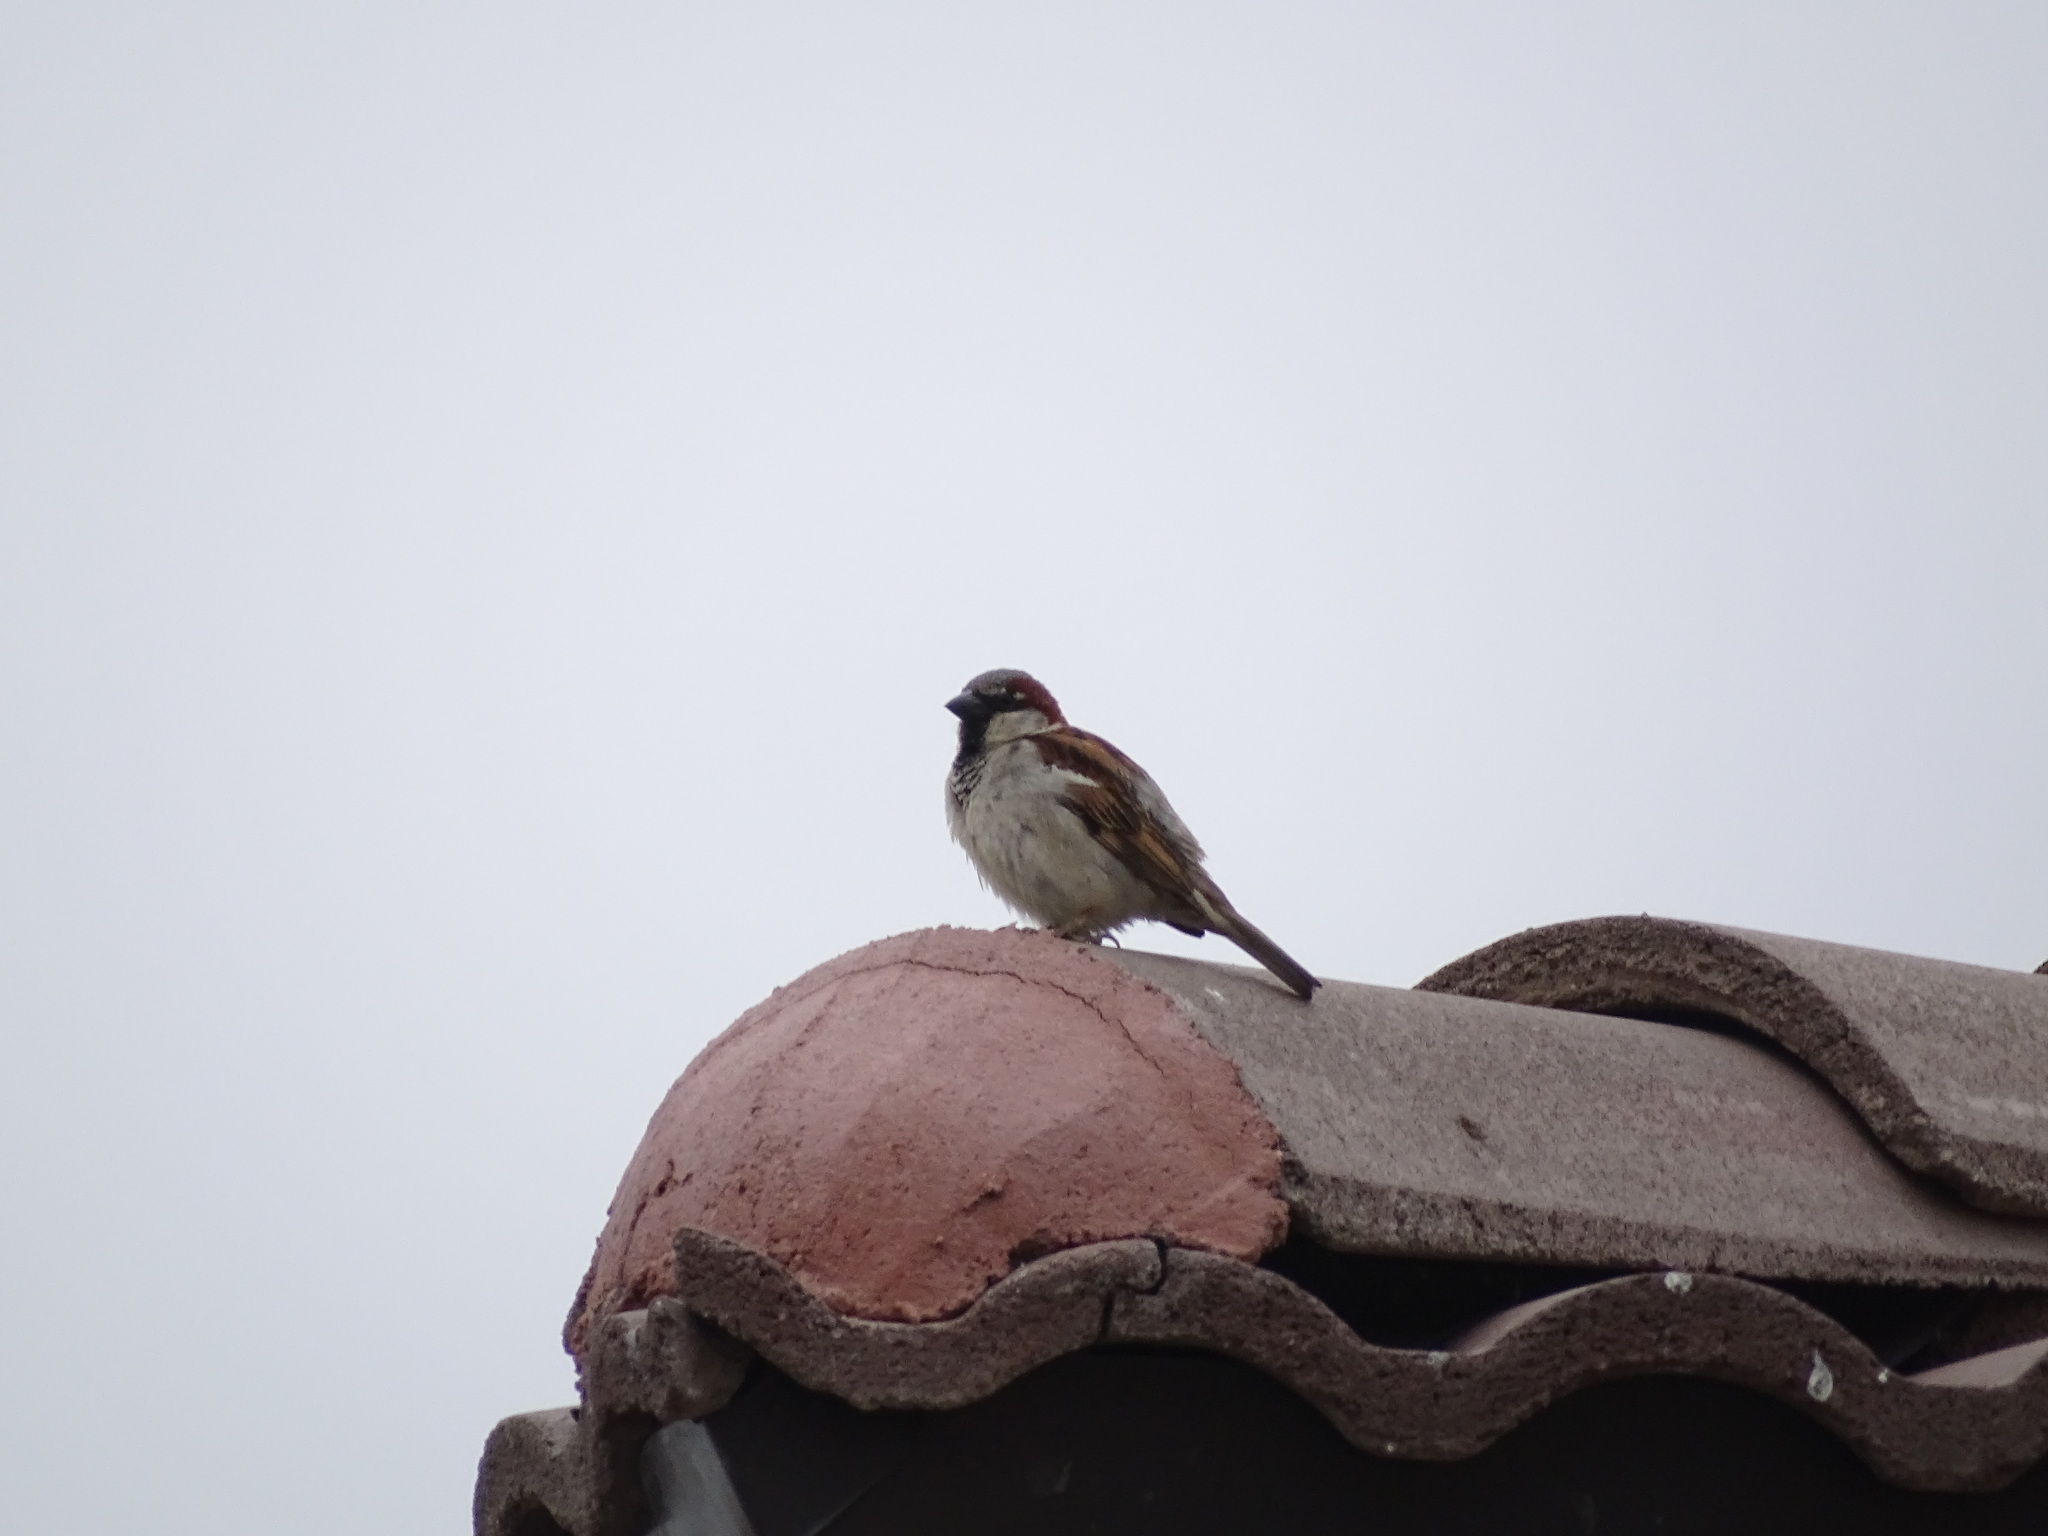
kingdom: Animalia
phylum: Chordata
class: Aves
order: Passeriformes
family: Passeridae
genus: Passer
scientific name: Passer domesticus
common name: House sparrow
